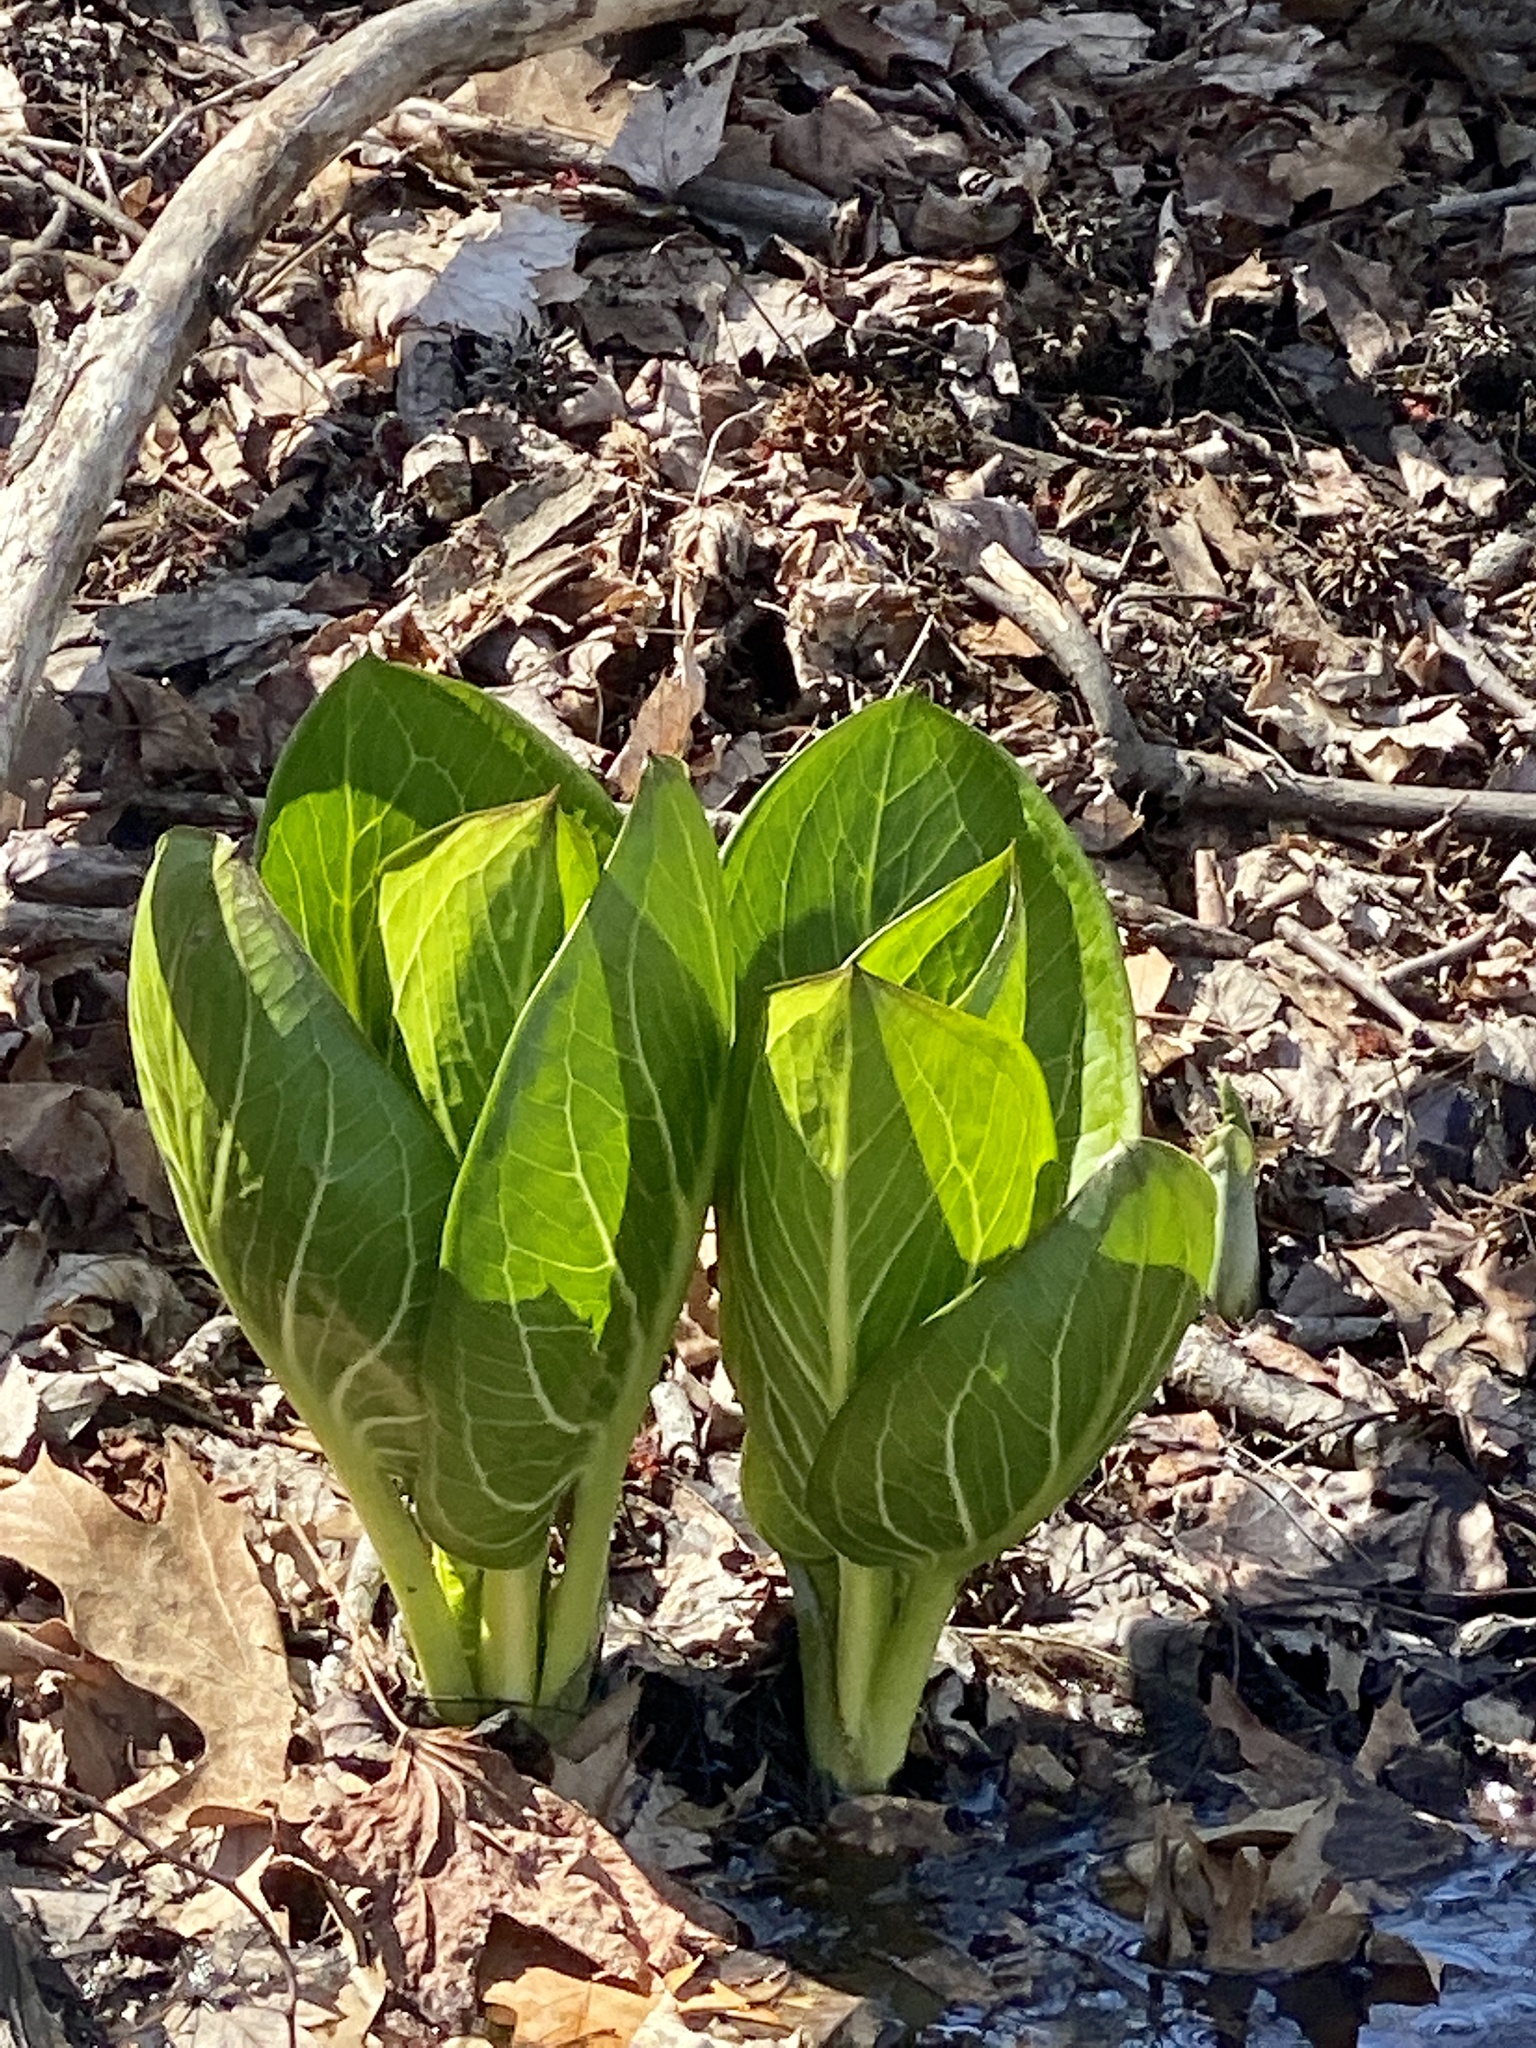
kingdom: Plantae
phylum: Tracheophyta
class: Liliopsida
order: Alismatales
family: Araceae
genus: Symplocarpus
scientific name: Symplocarpus foetidus
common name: Eastern skunk cabbage
